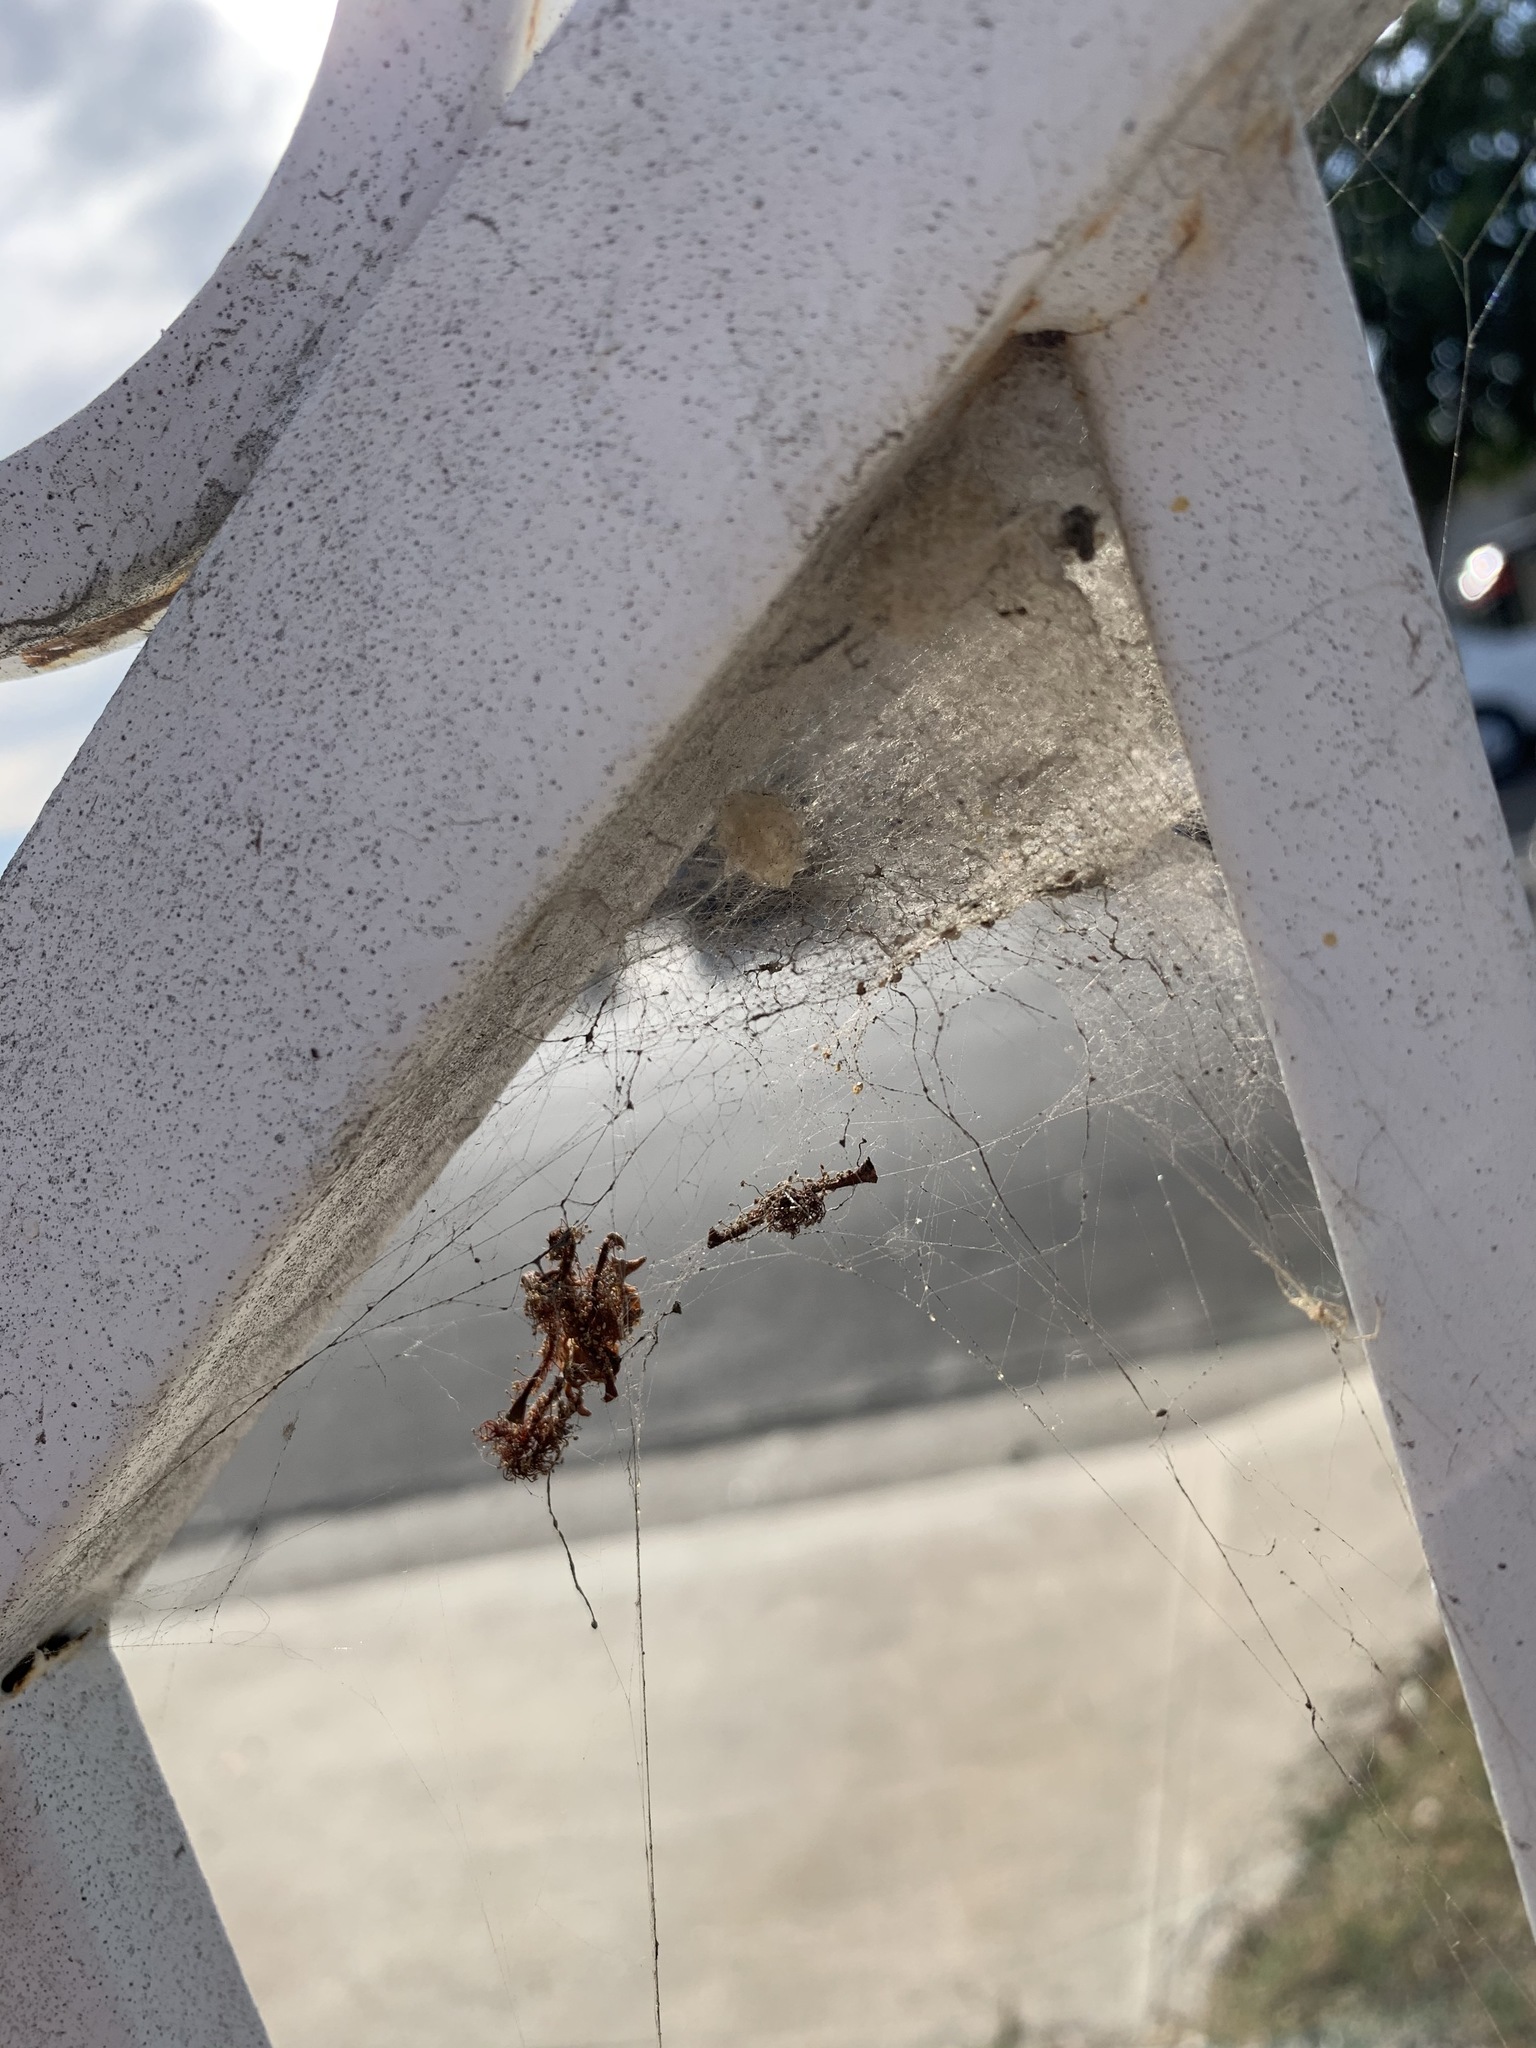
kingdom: Animalia
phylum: Arthropoda
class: Arachnida
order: Araneae
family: Theridiidae
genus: Latrodectus
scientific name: Latrodectus geometricus
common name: Brown widow spider
